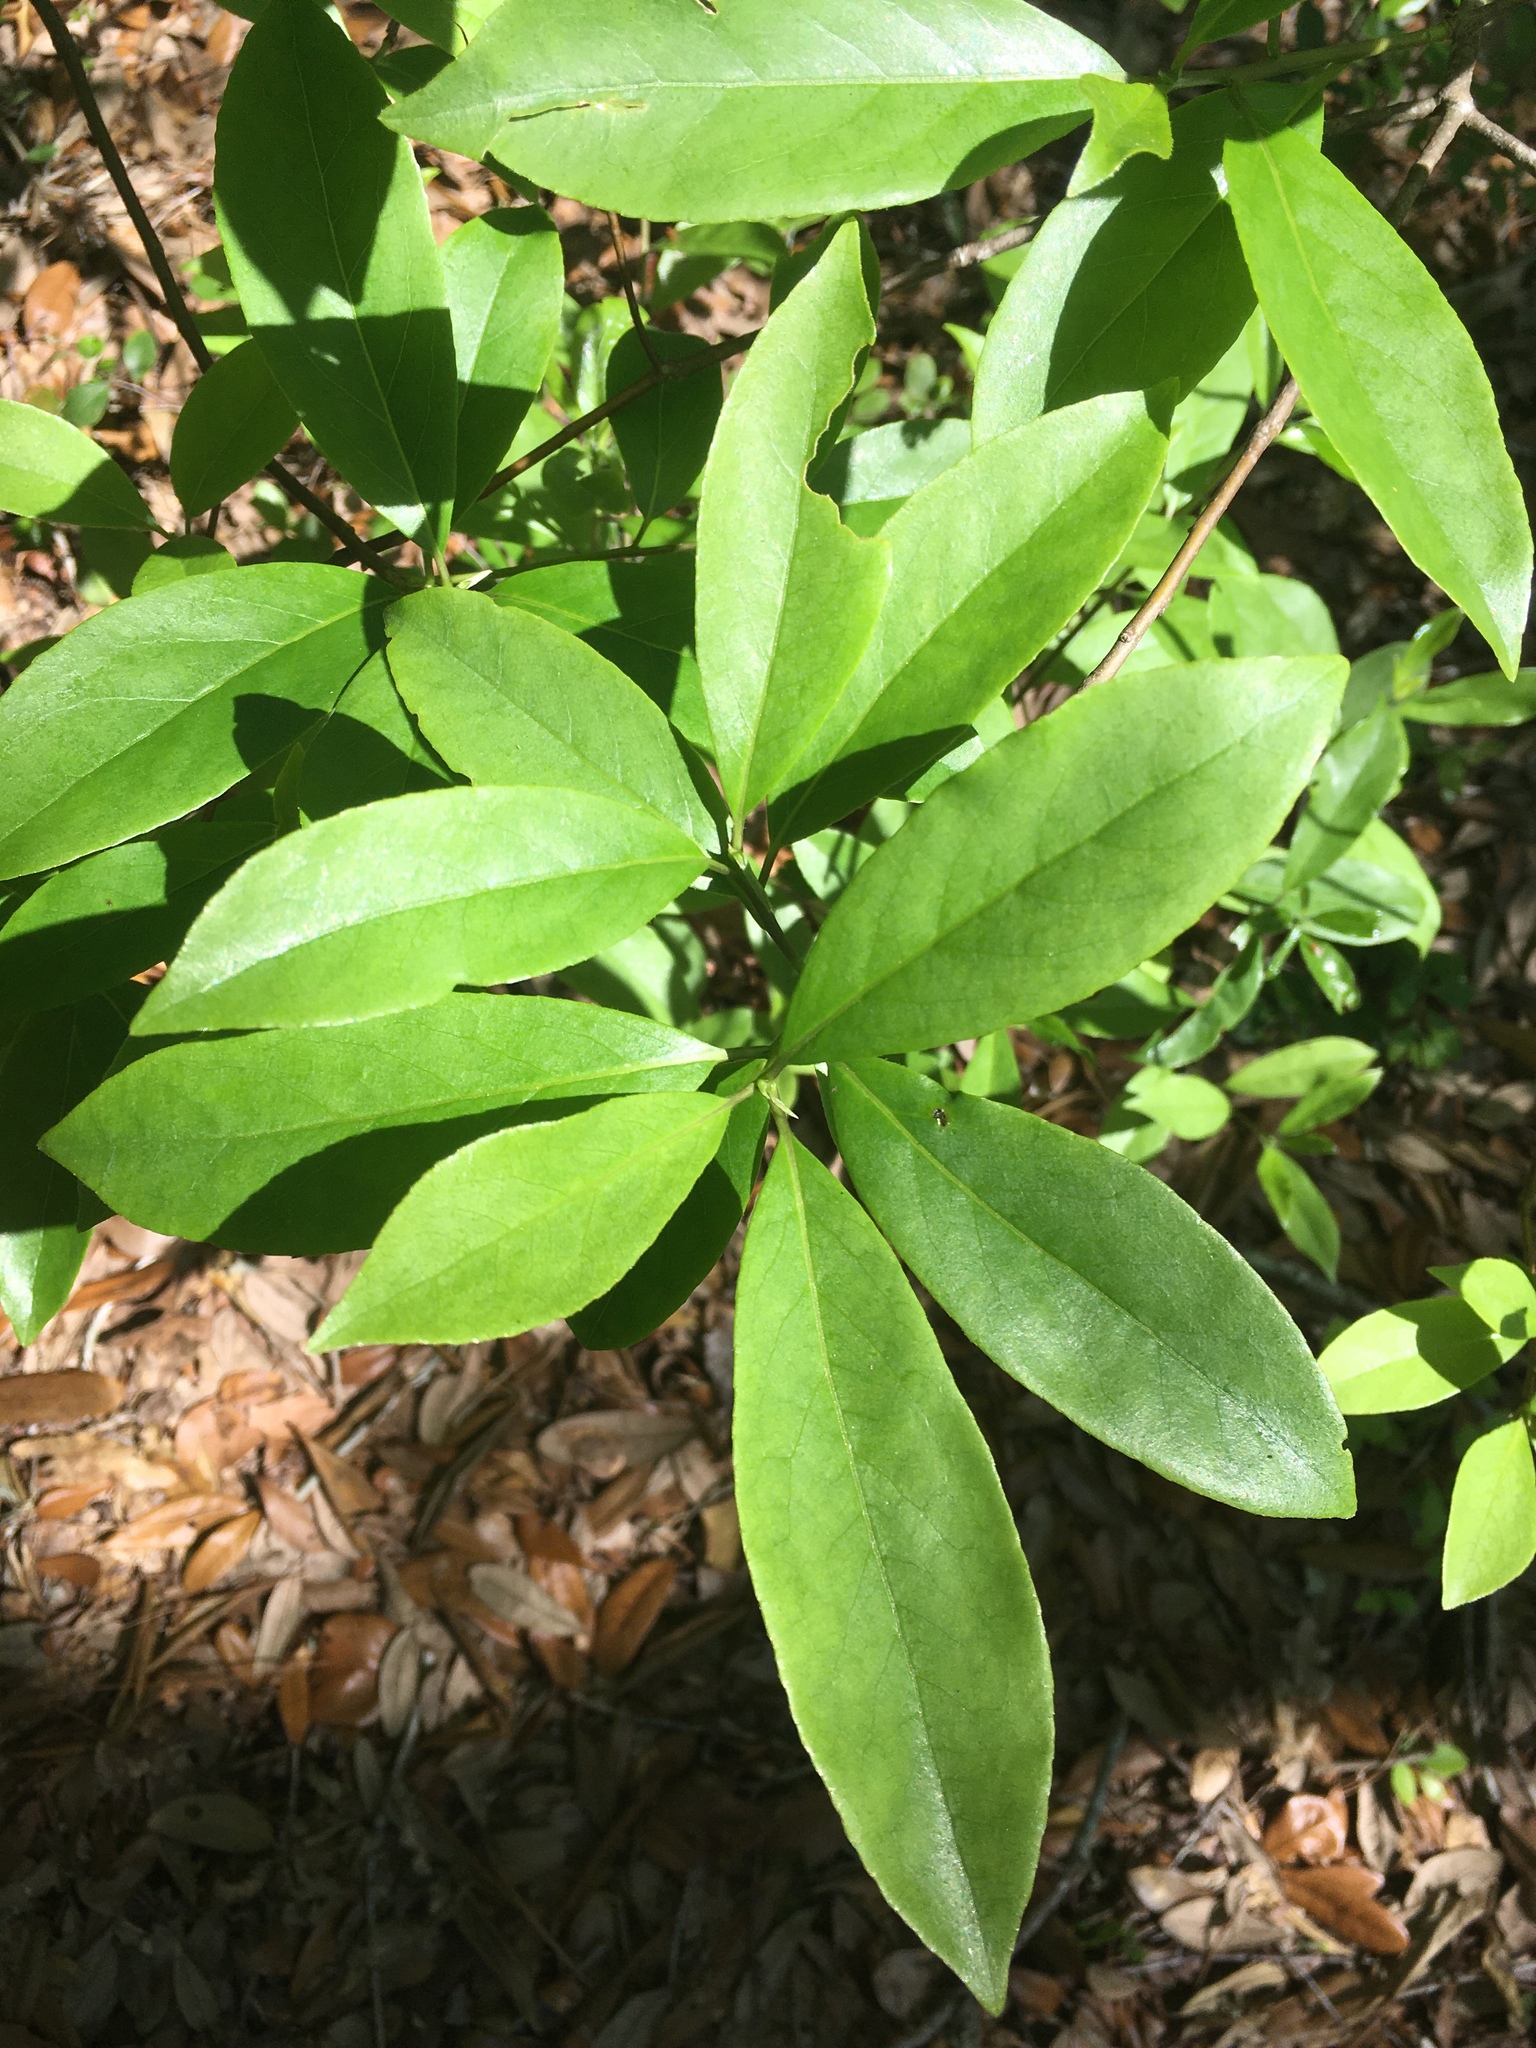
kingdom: Plantae
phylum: Tracheophyta
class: Magnoliopsida
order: Magnoliales
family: Magnoliaceae
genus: Magnolia
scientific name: Magnolia virginiana
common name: Swamp bay
